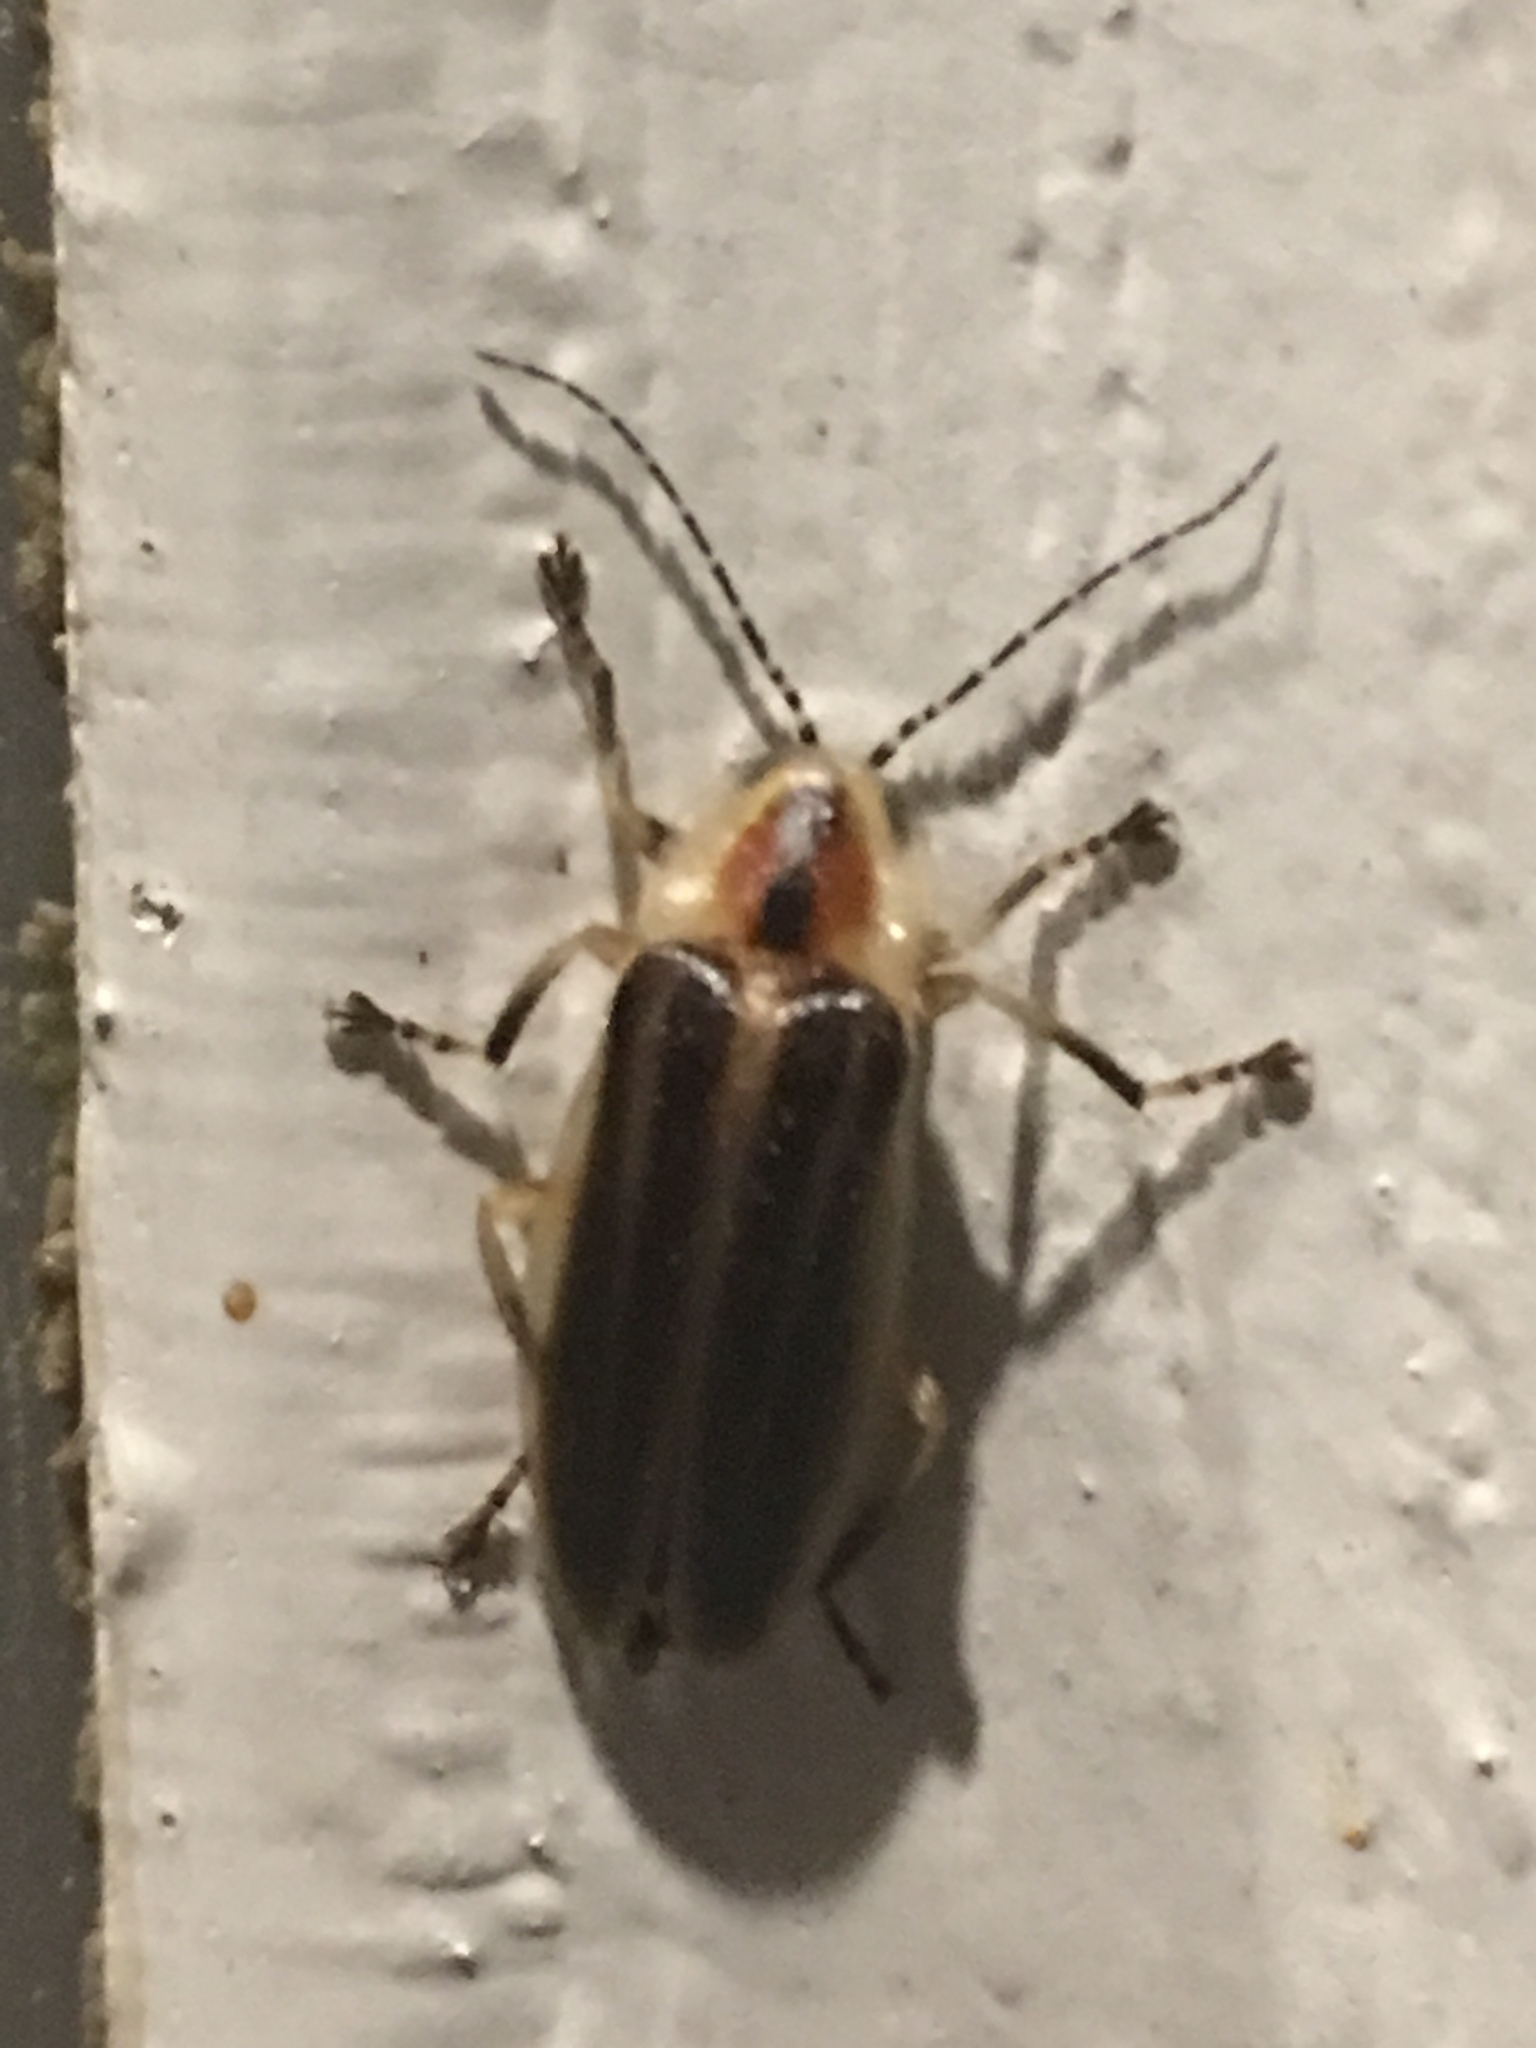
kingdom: Animalia
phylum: Arthropoda
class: Insecta
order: Coleoptera
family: Lampyridae
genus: Photuris
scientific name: Photuris
